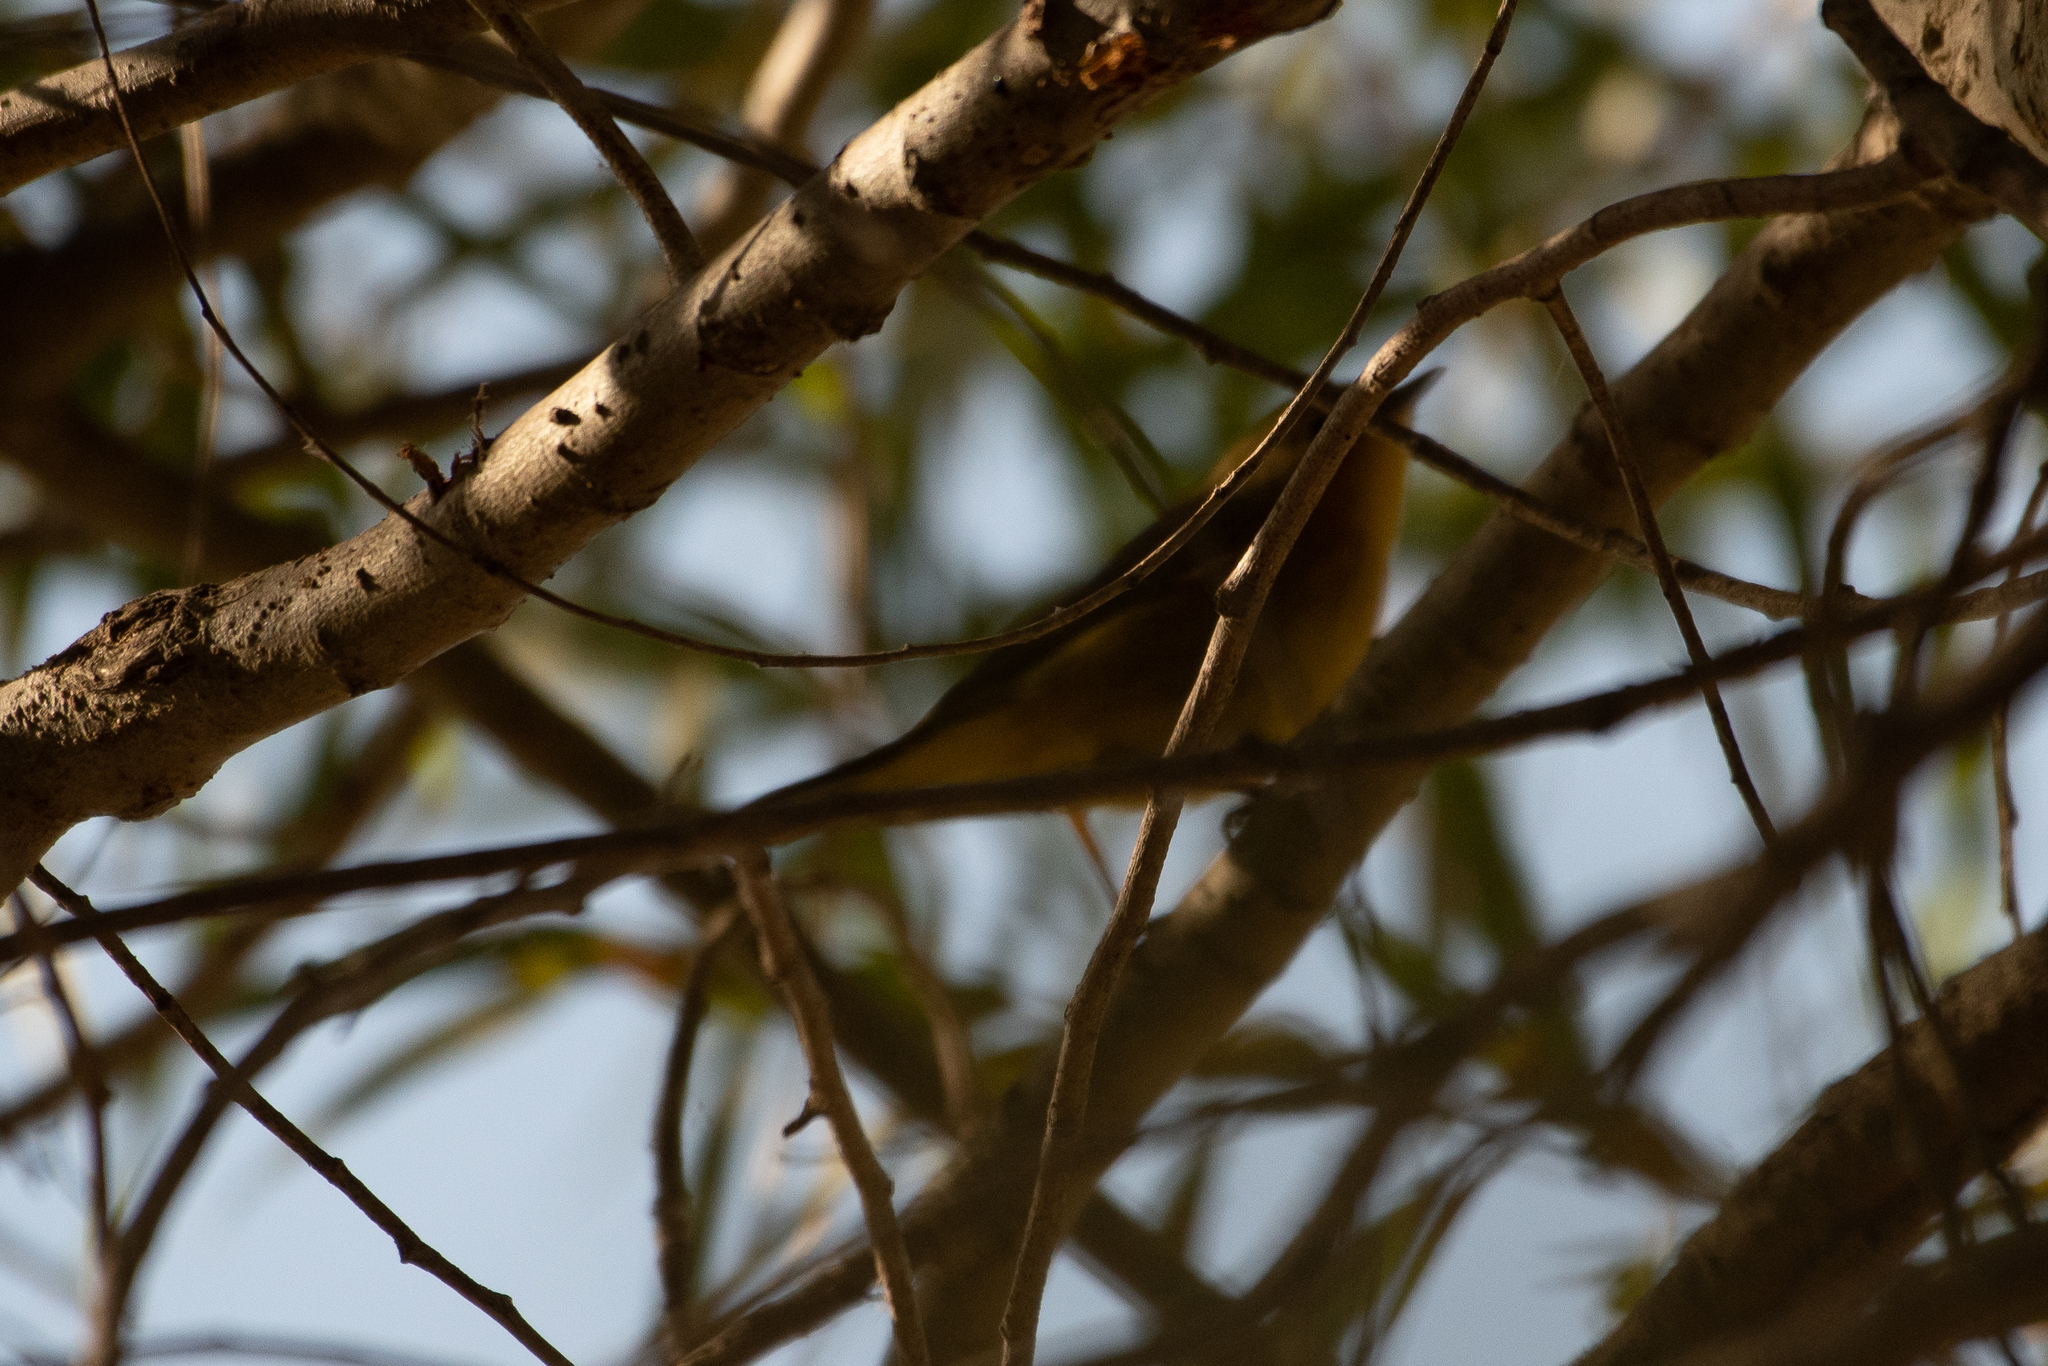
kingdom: Animalia
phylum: Chordata
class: Aves
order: Passeriformes
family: Parulidae
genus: Setophaga
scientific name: Setophaga petechia
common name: Yellow warbler
